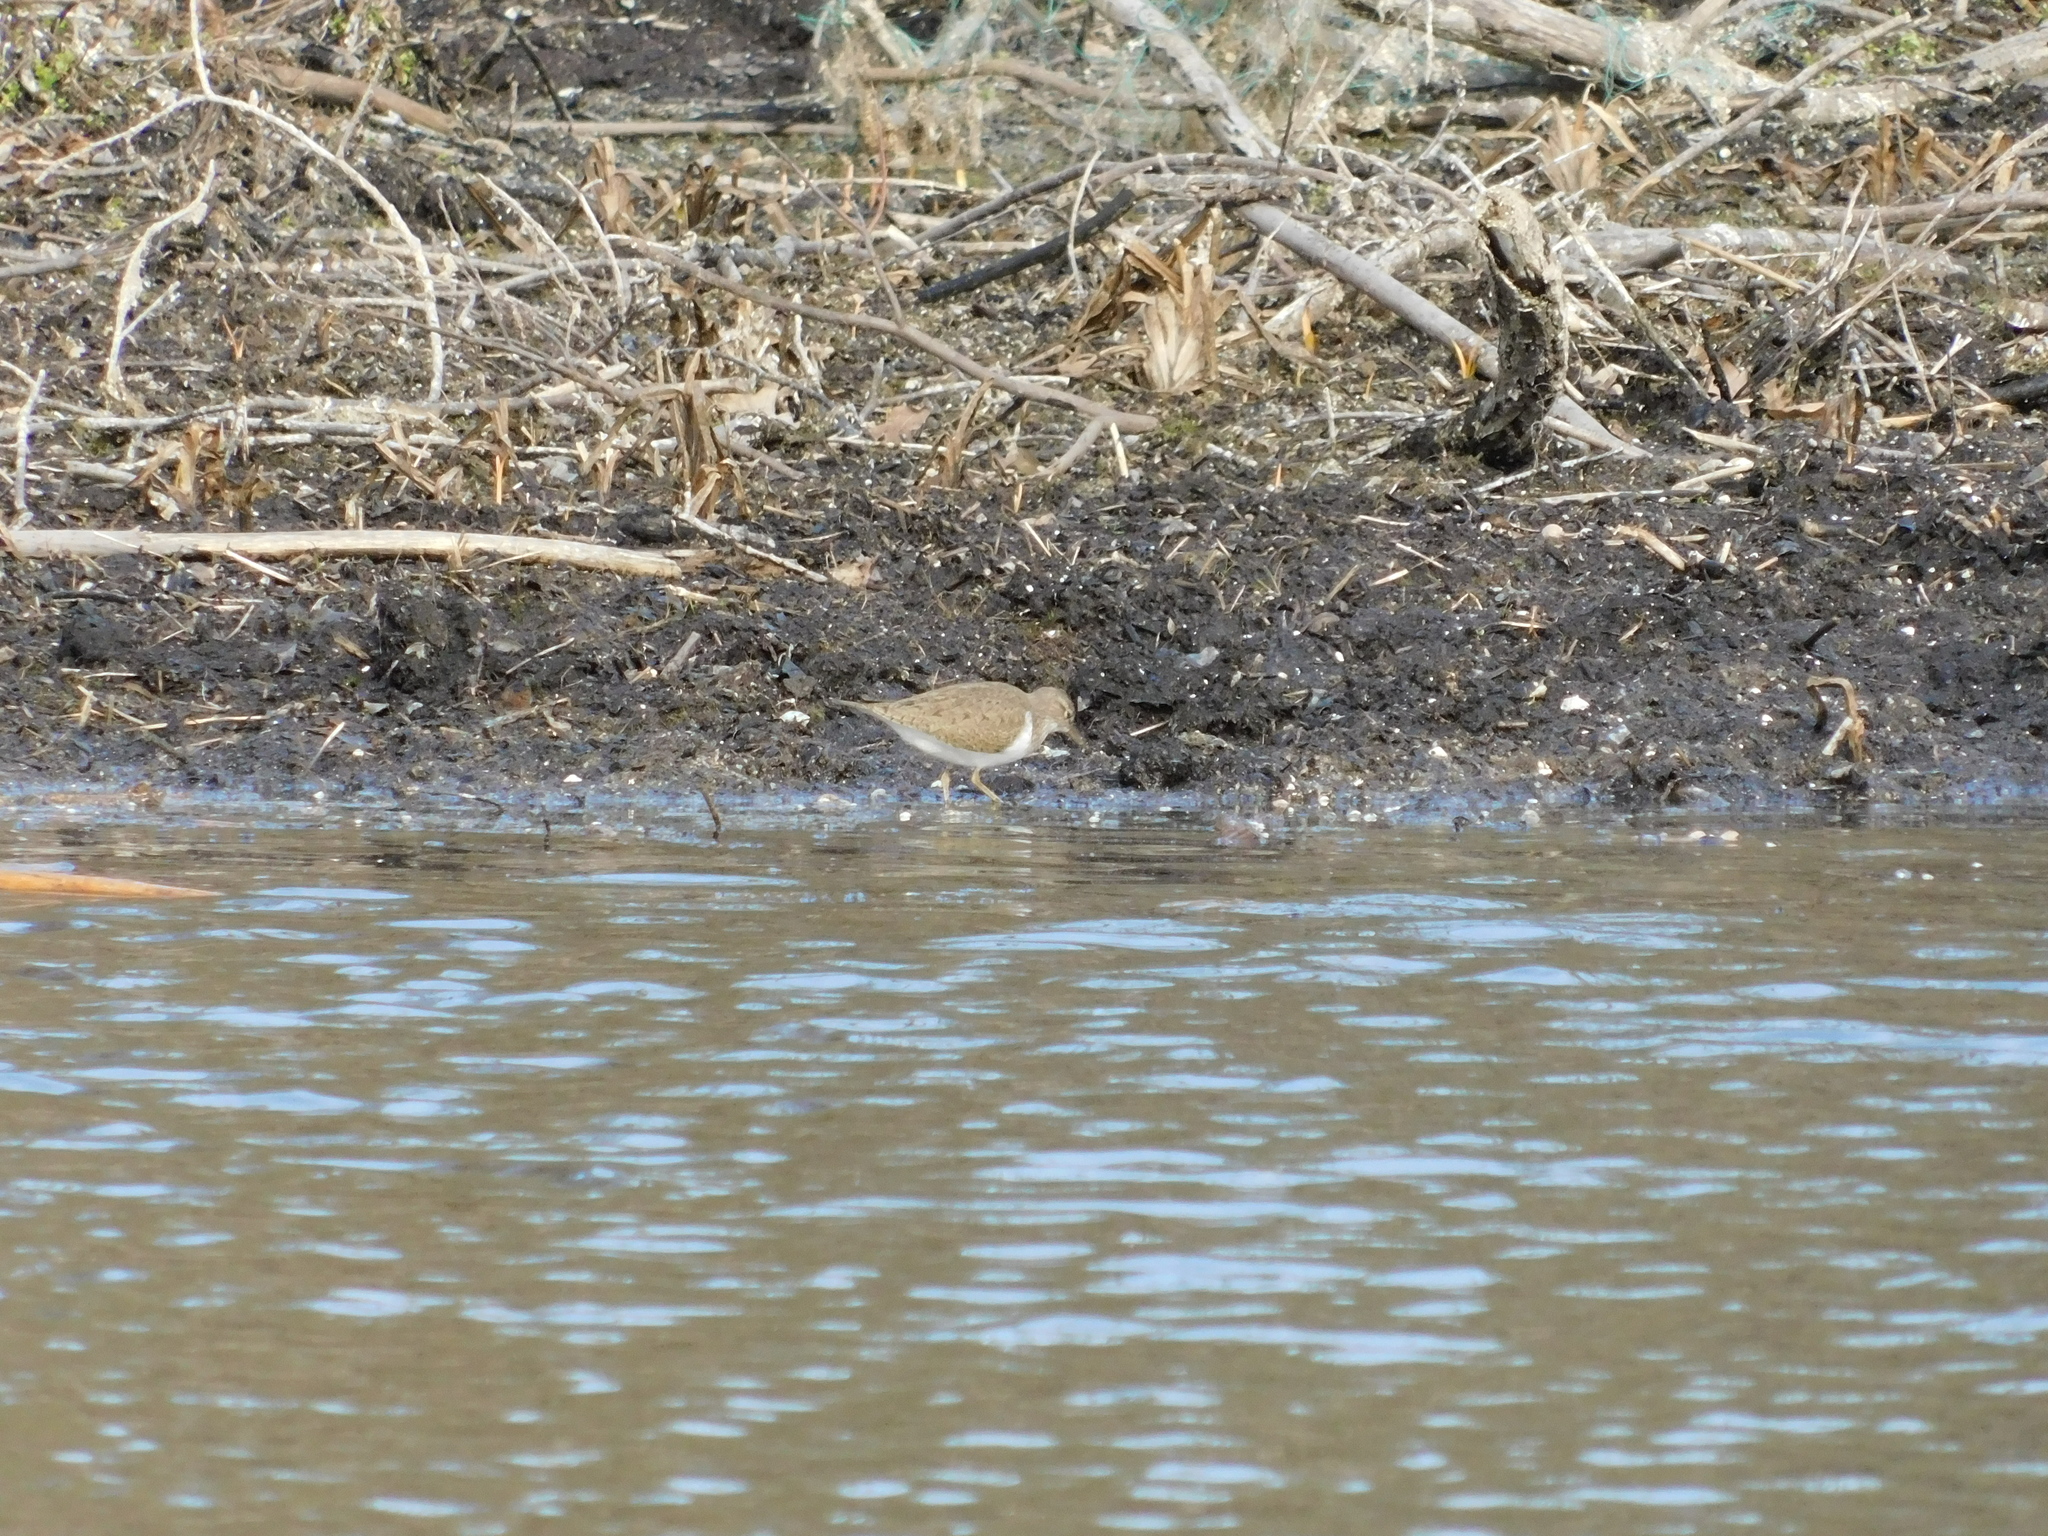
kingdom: Animalia
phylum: Chordata
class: Aves
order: Charadriiformes
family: Scolopacidae
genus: Actitis
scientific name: Actitis hypoleucos
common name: Common sandpiper
